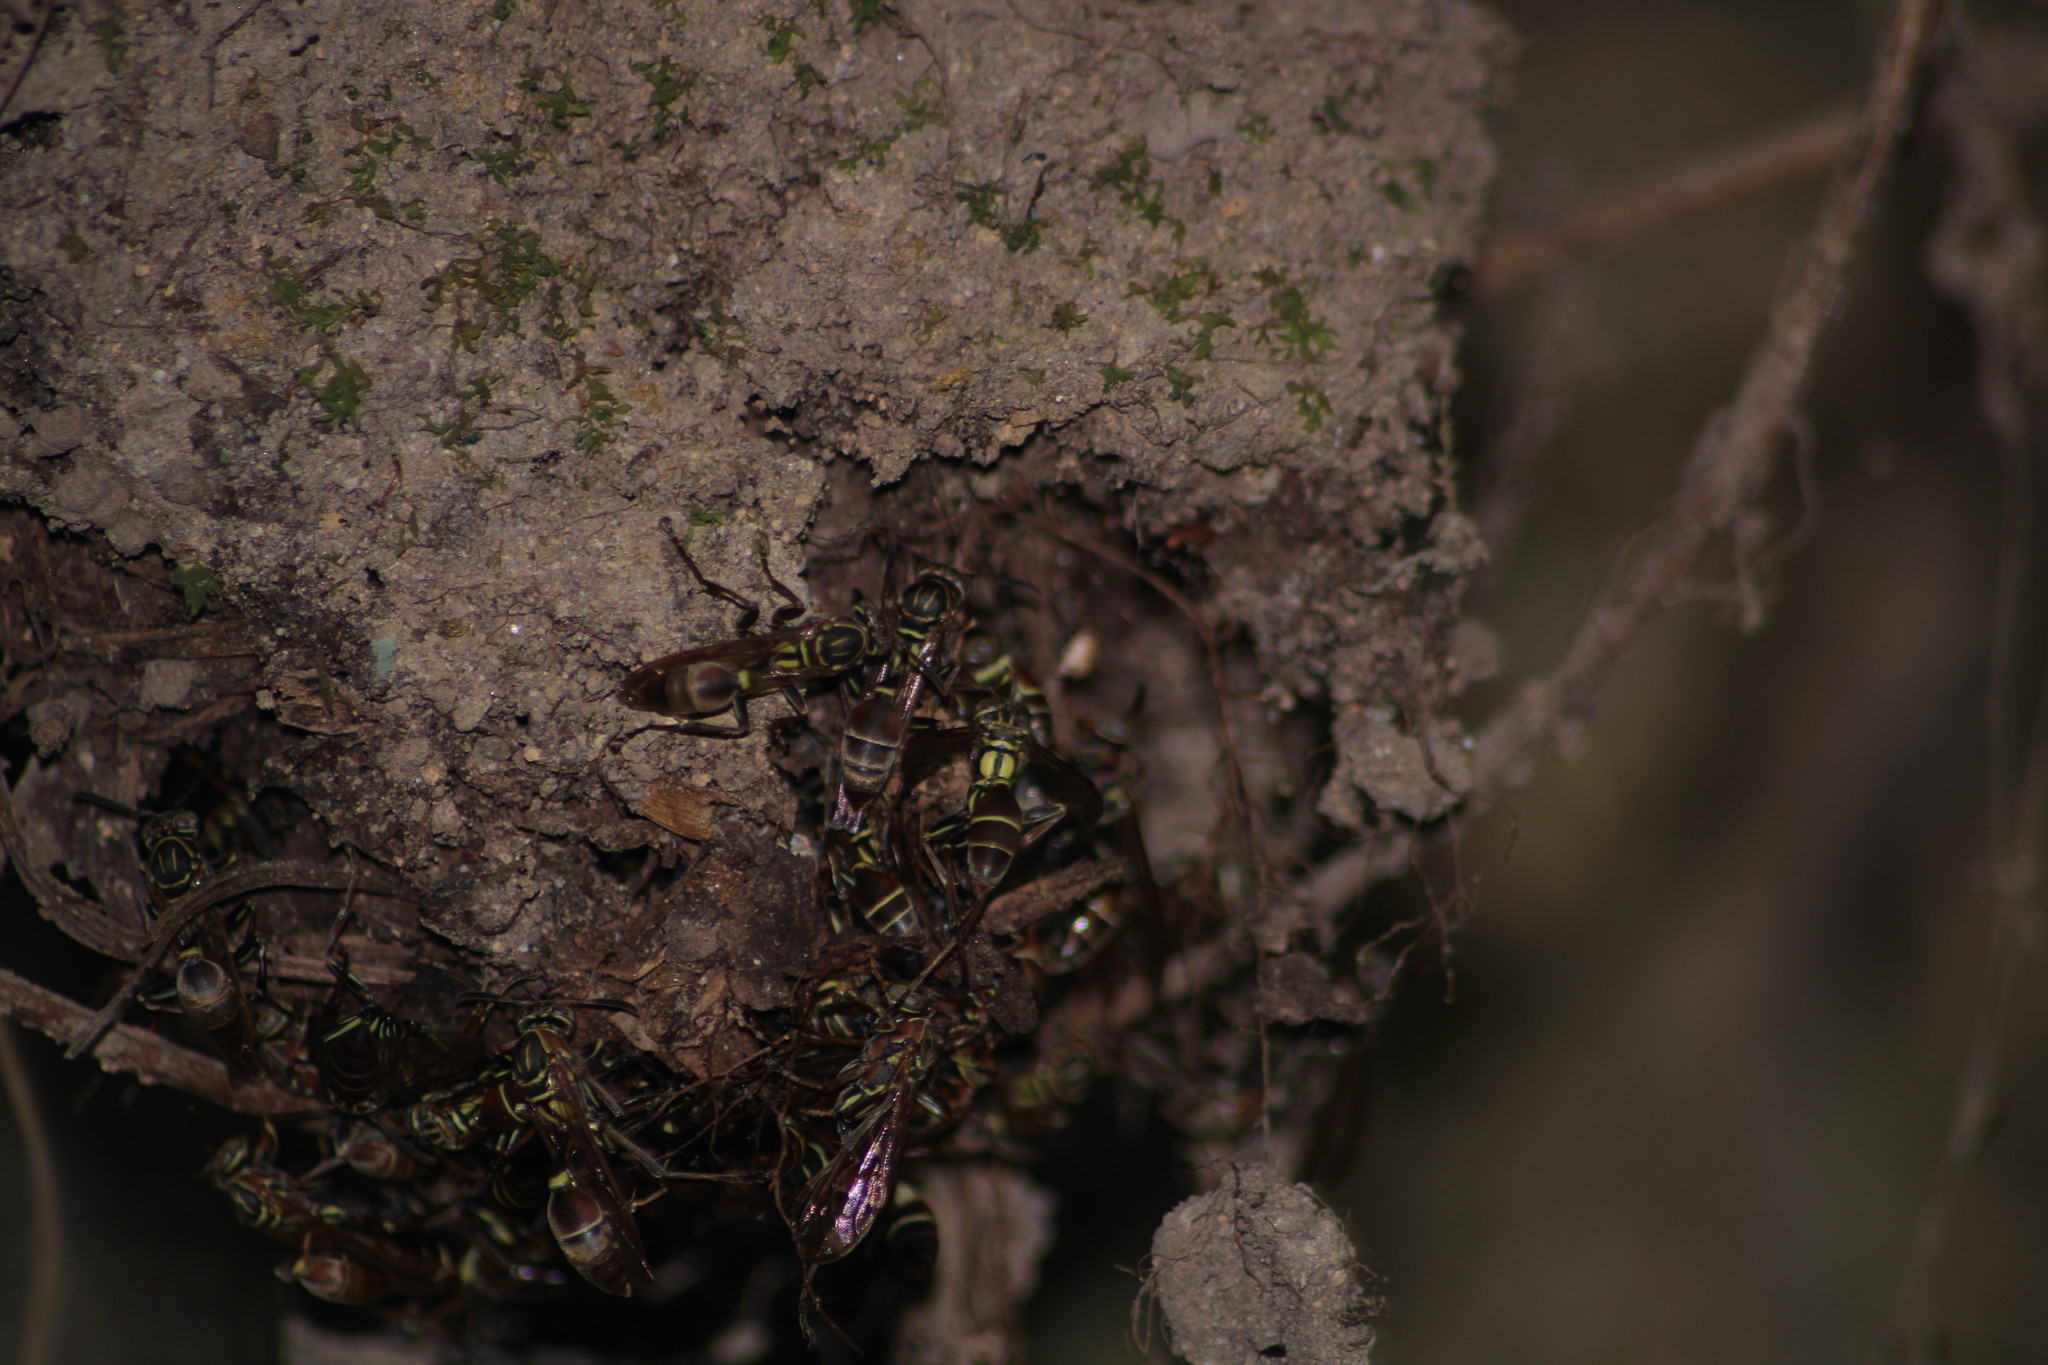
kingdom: Animalia
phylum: Arthropoda
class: Insecta
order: Hymenoptera
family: Vespidae
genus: Mischocyttarus
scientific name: Mischocyttarus mexicanus
